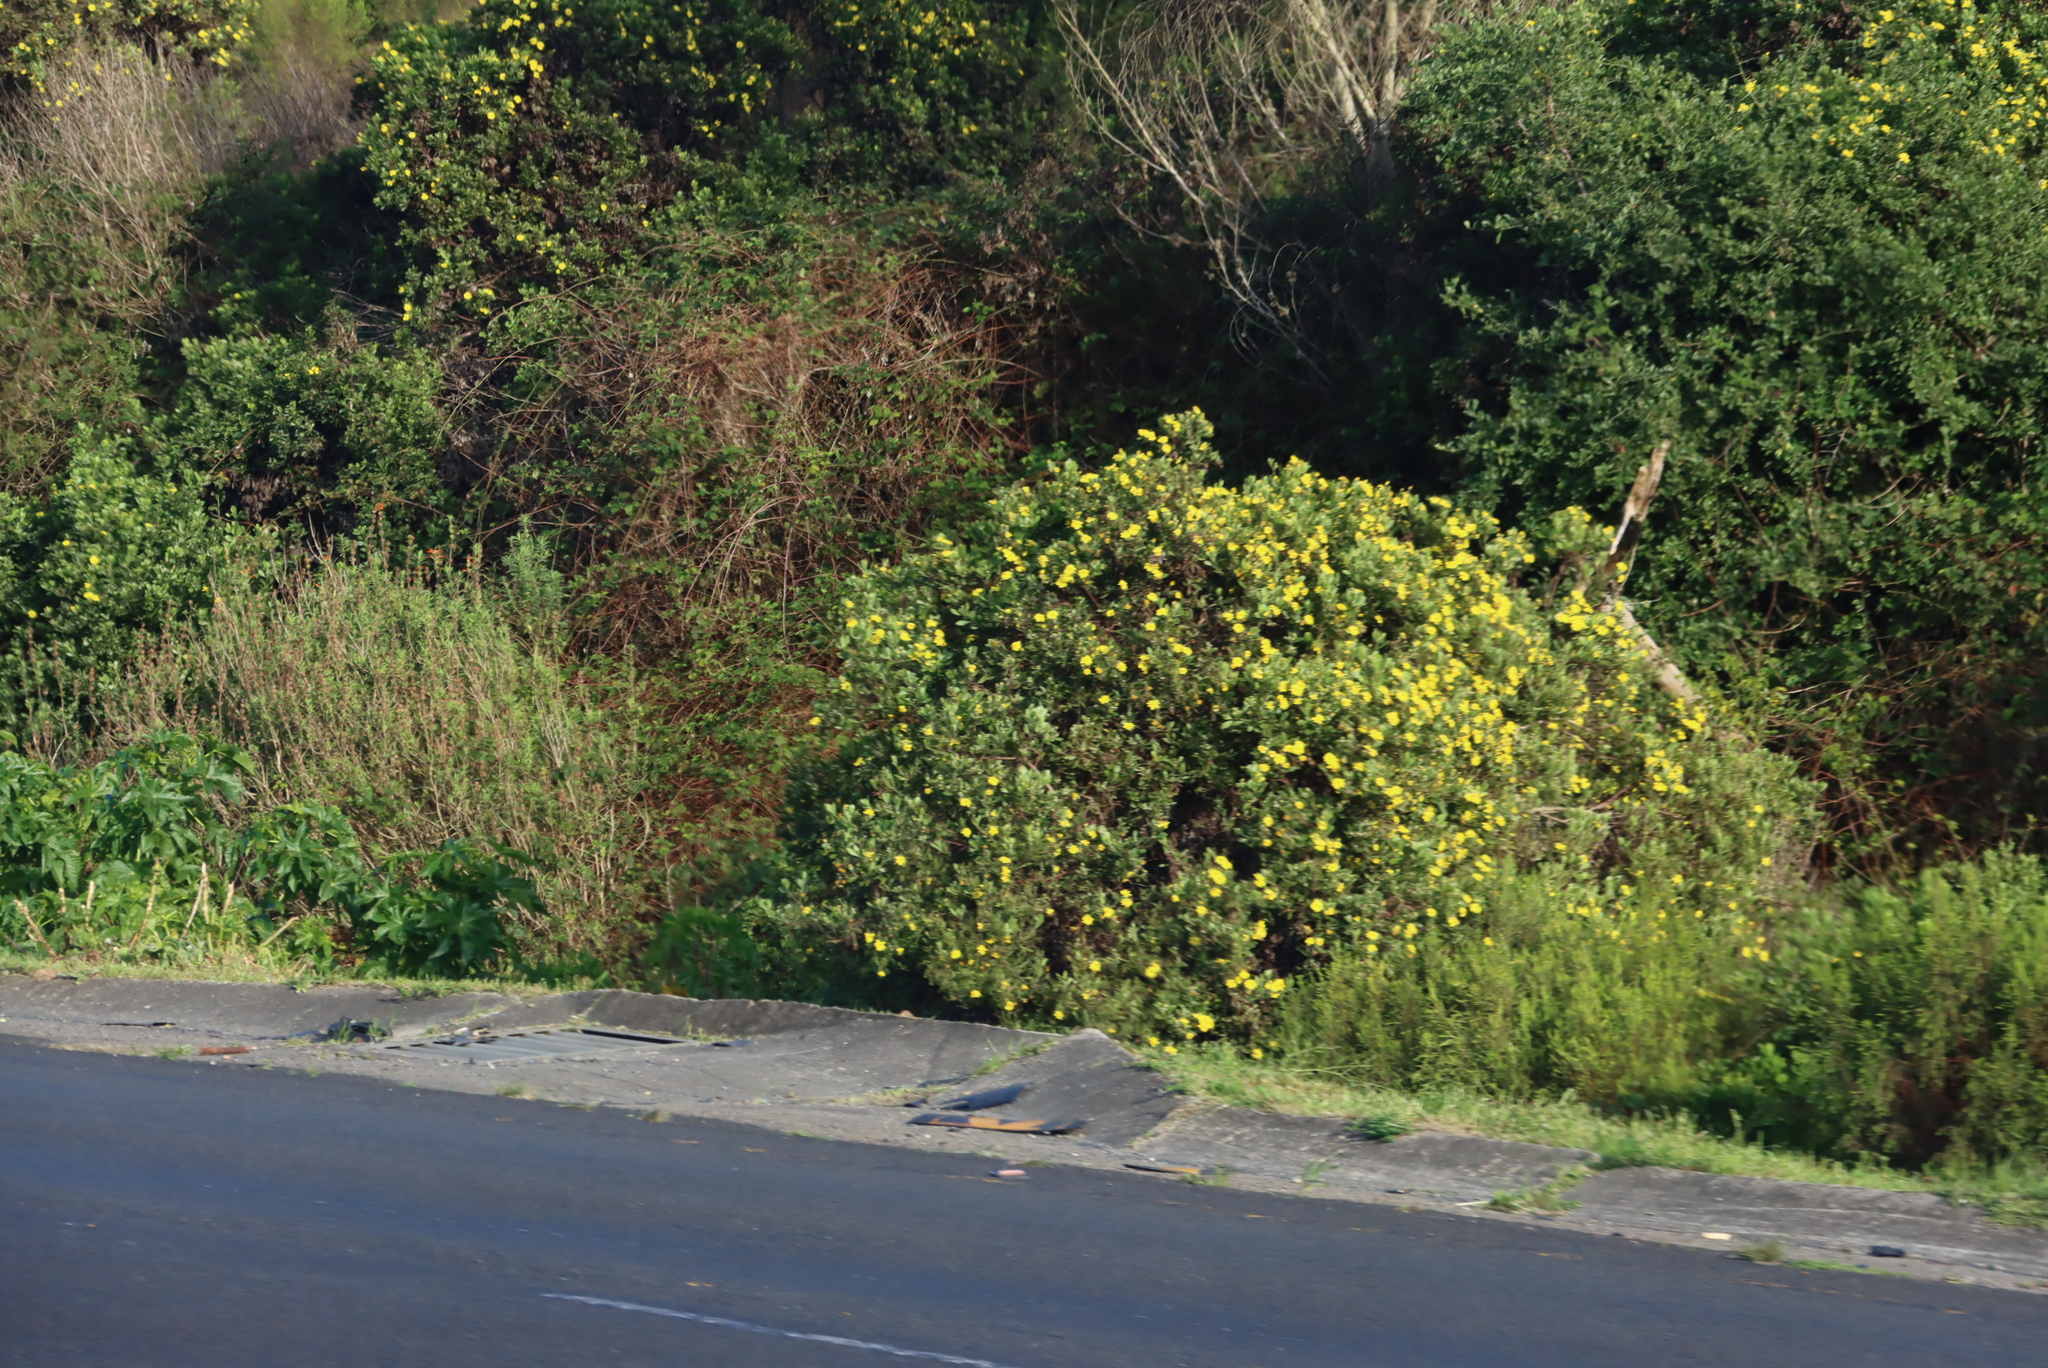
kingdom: Plantae
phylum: Tracheophyta
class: Magnoliopsida
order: Asterales
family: Asteraceae
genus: Osteospermum
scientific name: Osteospermum moniliferum
